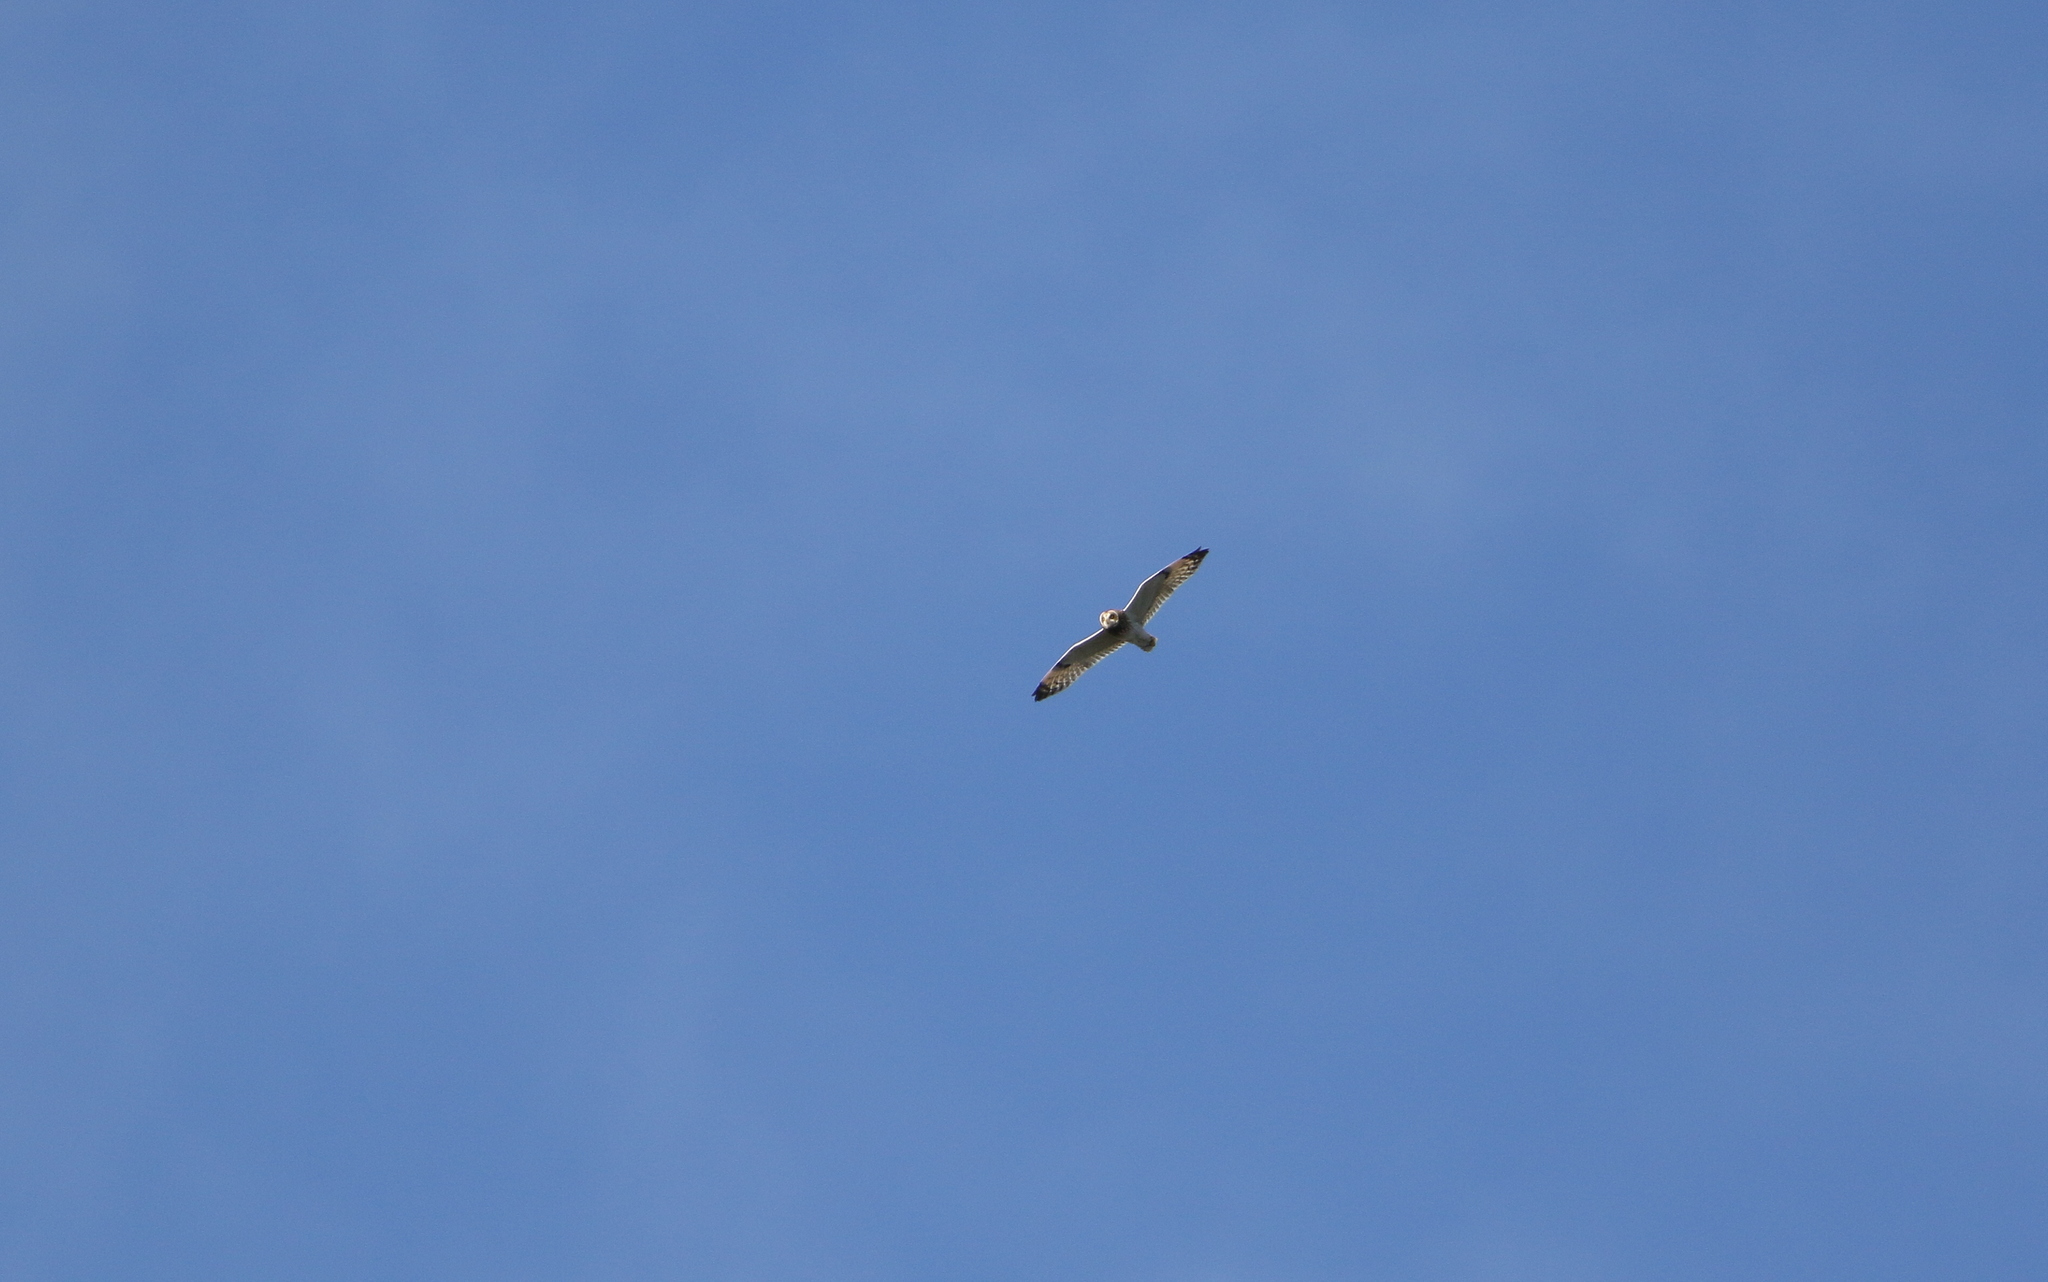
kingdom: Animalia
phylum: Chordata
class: Aves
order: Strigiformes
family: Strigidae
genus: Asio
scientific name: Asio flammeus
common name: Short-eared owl
